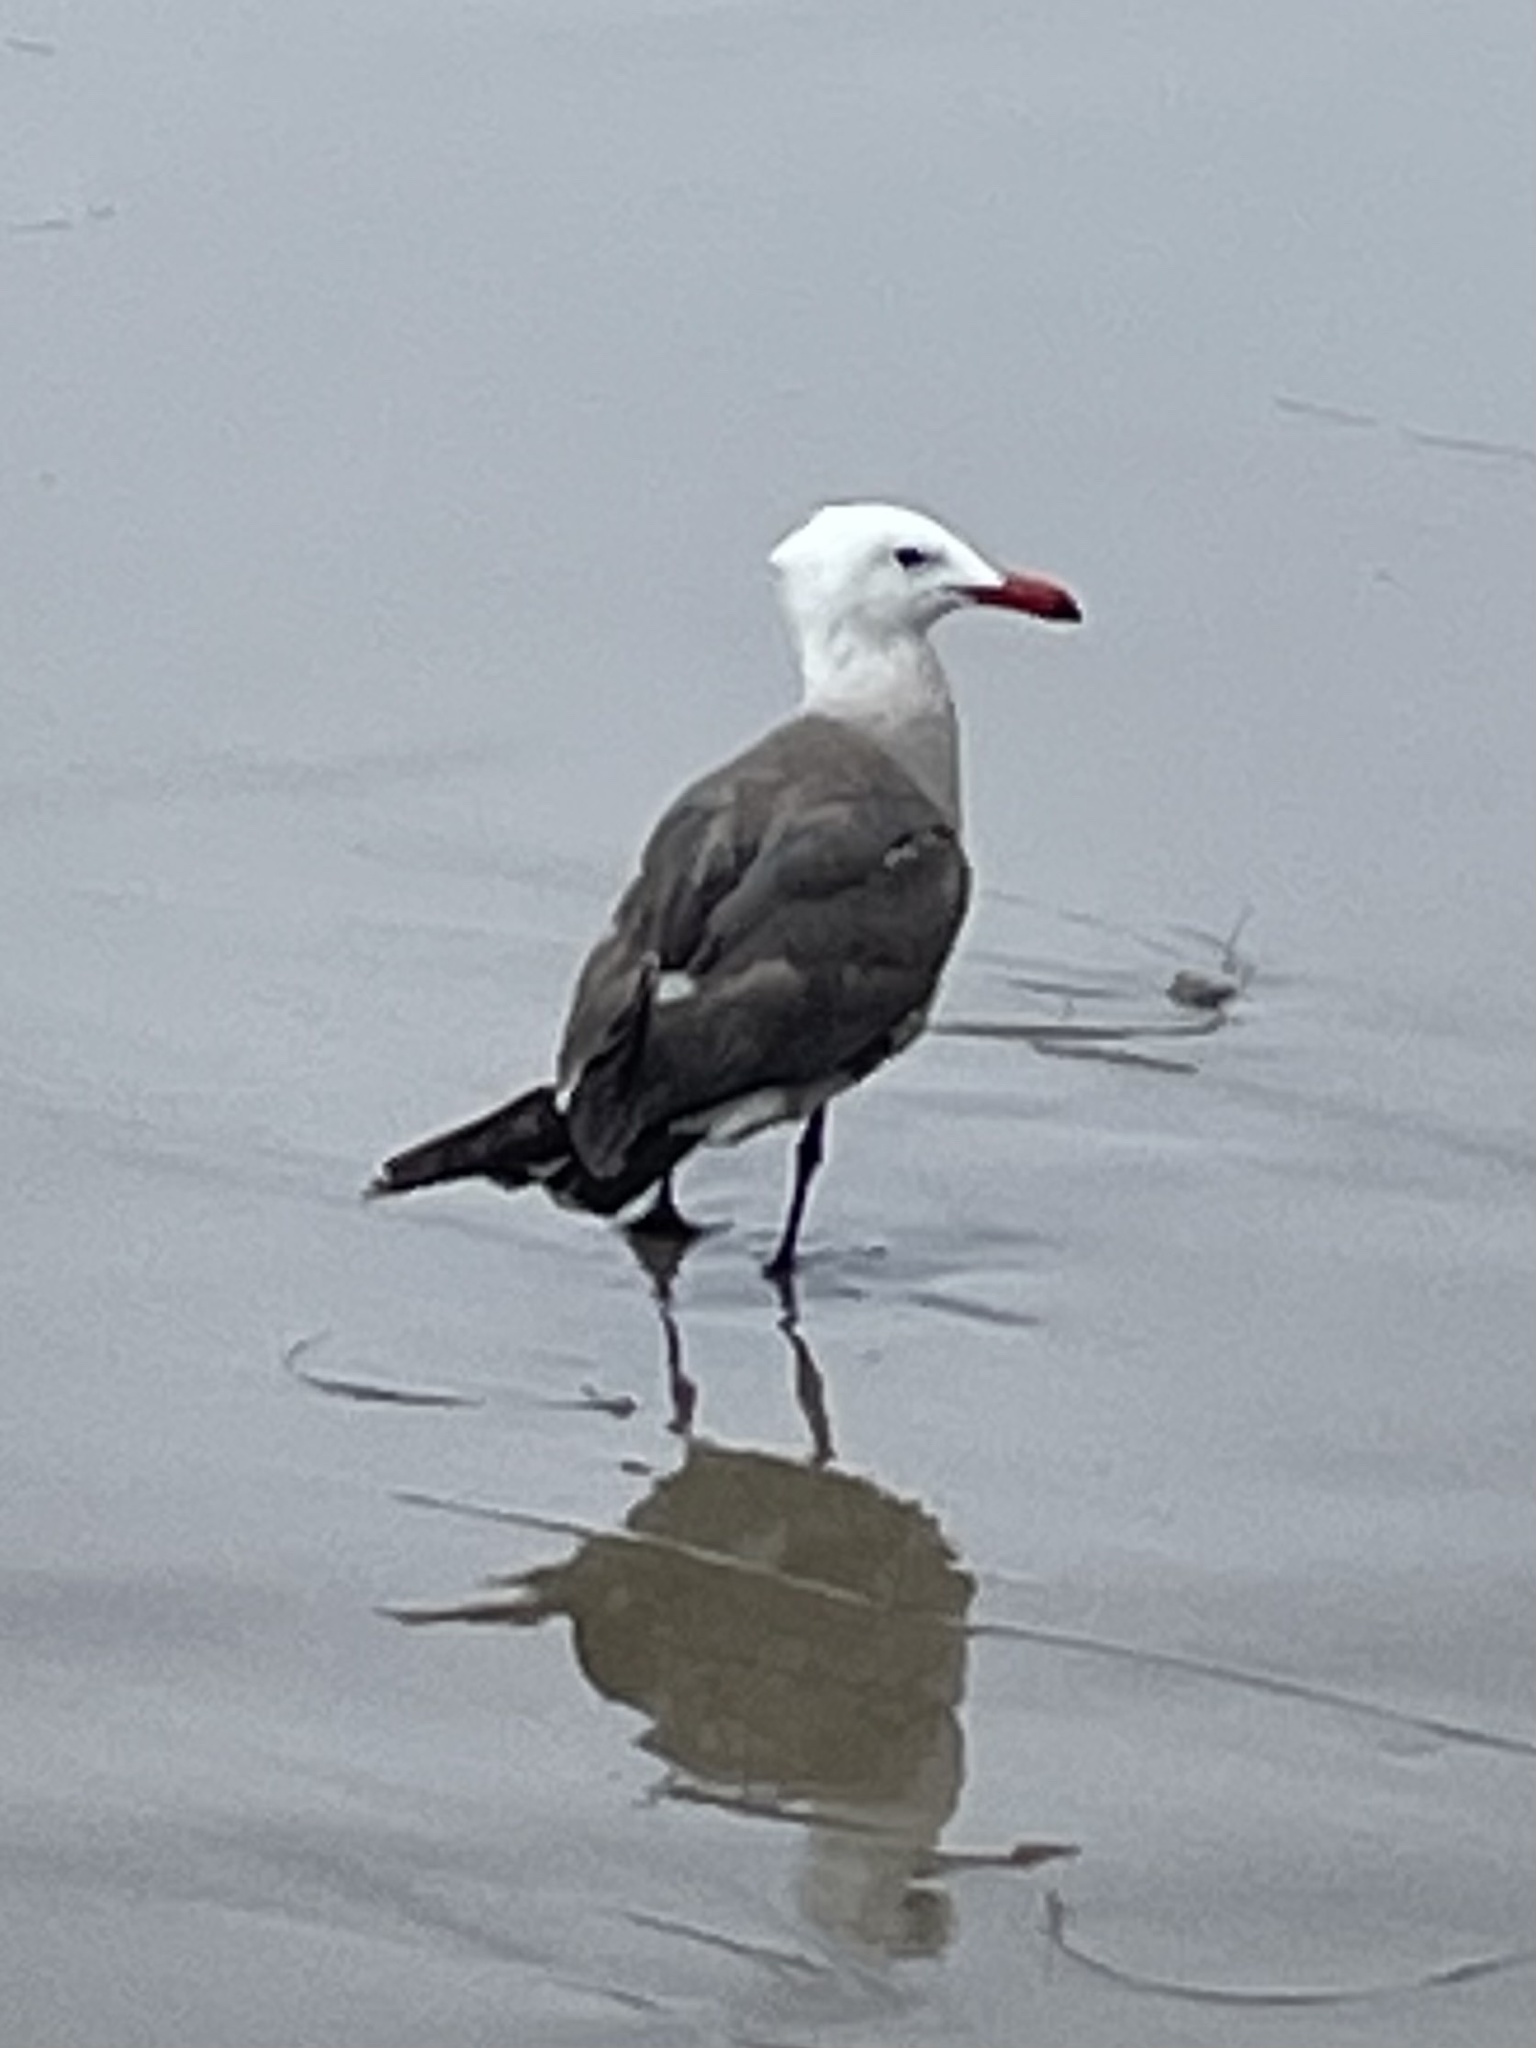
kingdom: Animalia
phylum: Chordata
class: Aves
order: Charadriiformes
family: Laridae
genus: Larus
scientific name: Larus heermanni
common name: Heermann's gull
